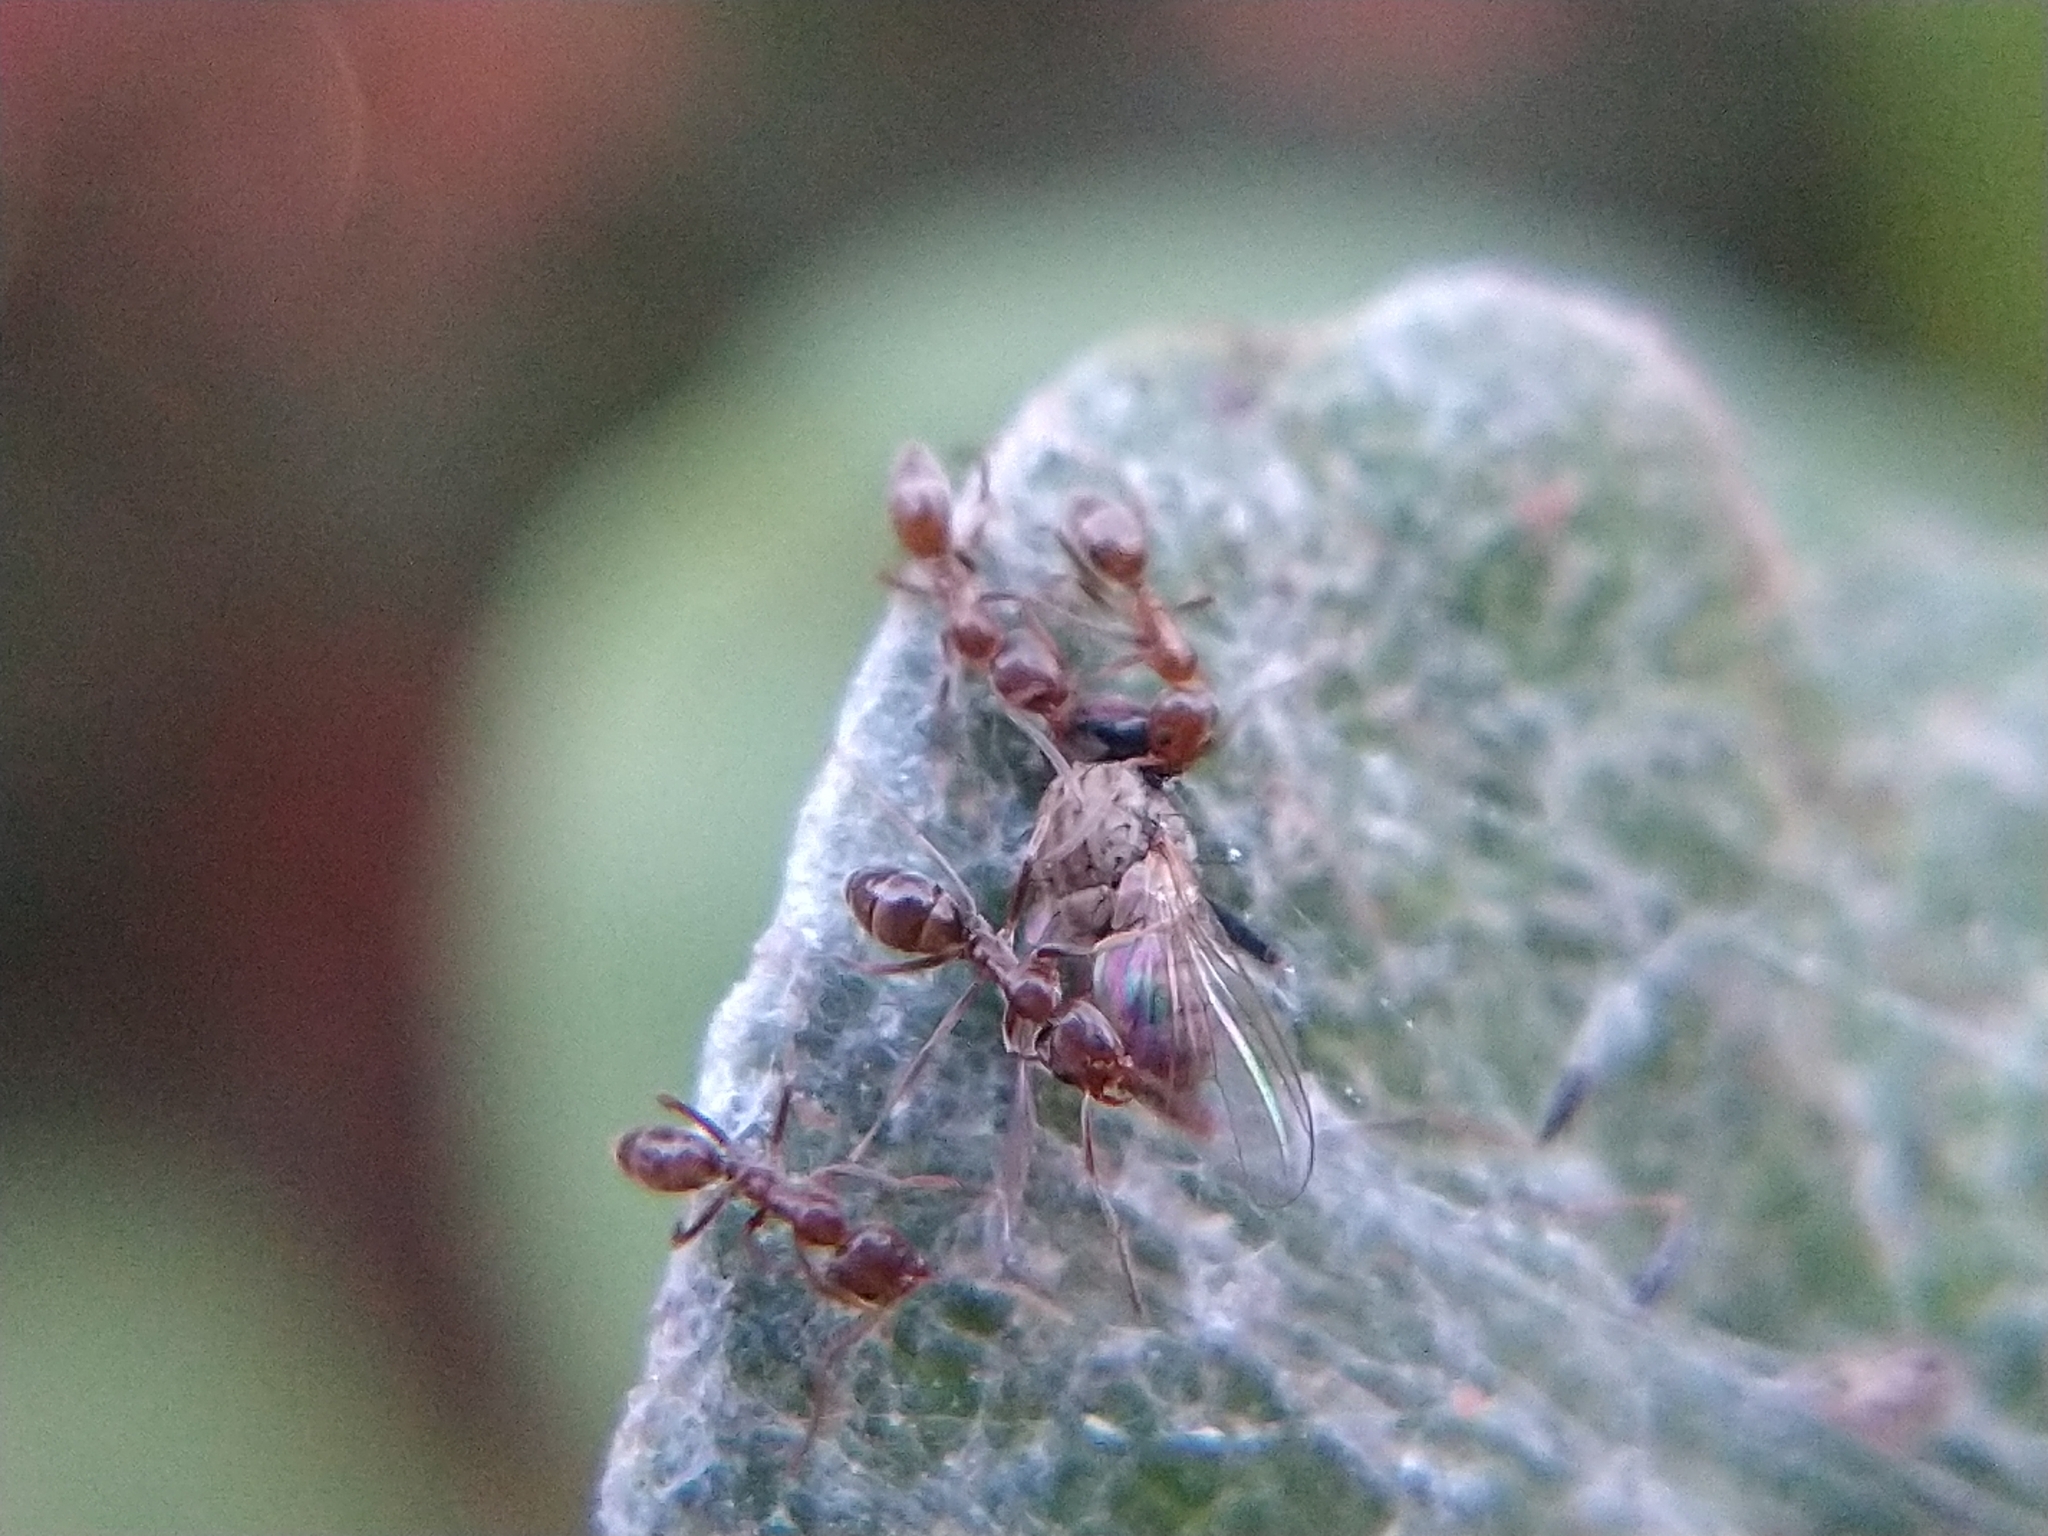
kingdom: Animalia
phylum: Arthropoda
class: Insecta
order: Hymenoptera
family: Formicidae
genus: Linepithema
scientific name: Linepithema humile
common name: Argentine ant
